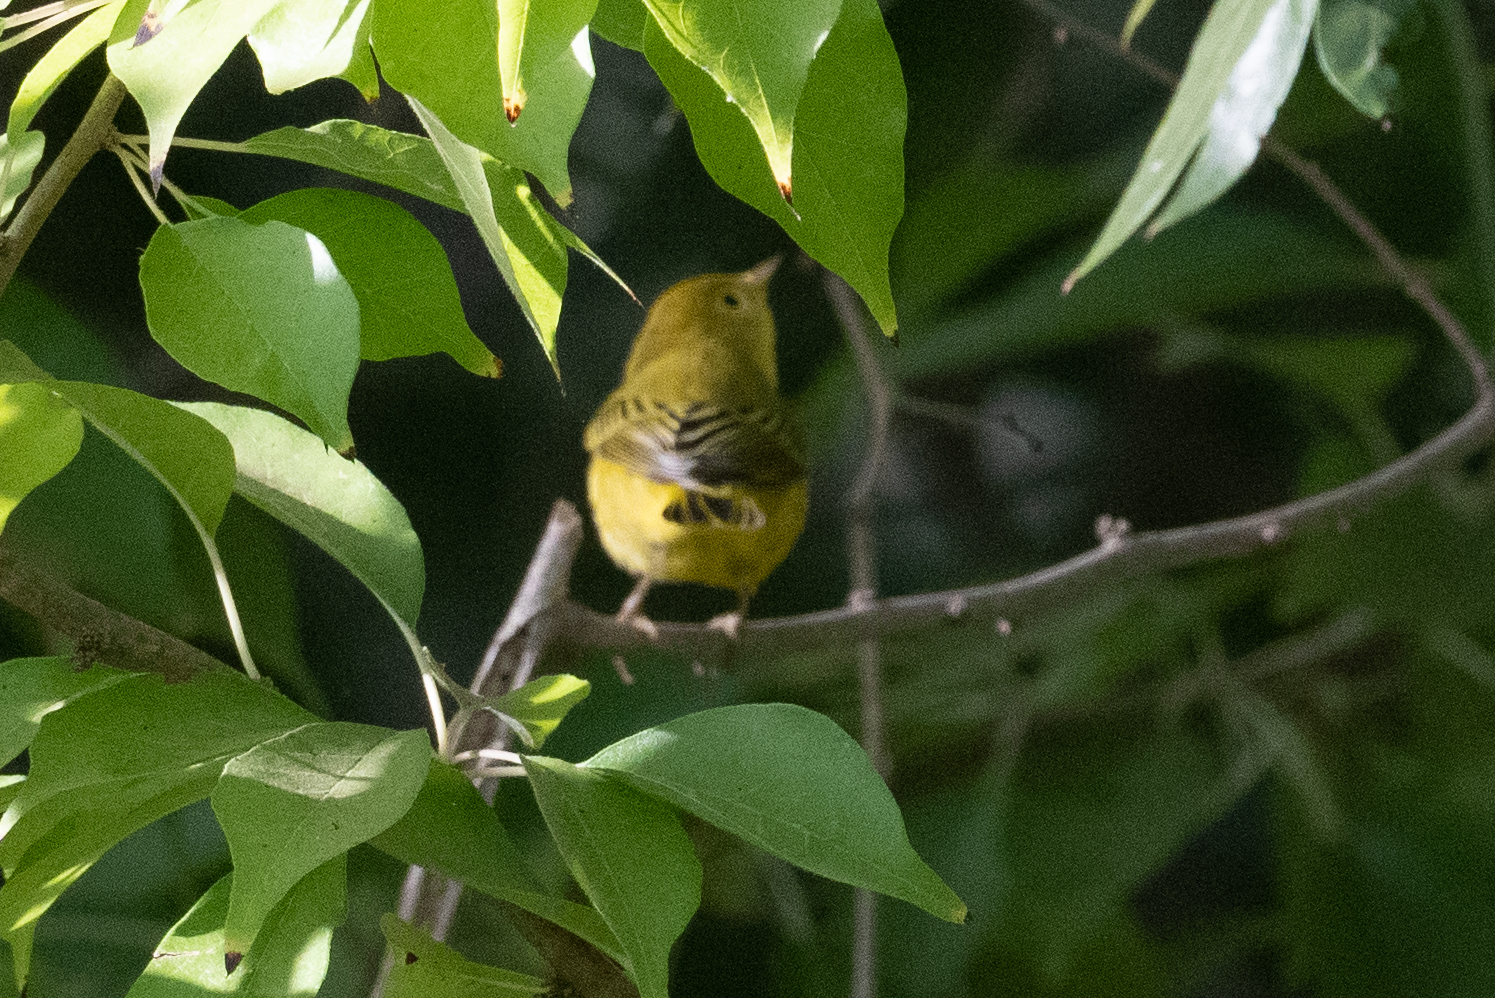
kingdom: Animalia
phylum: Chordata
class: Aves
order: Passeriformes
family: Parulidae
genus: Setophaga
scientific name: Setophaga petechia
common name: Yellow warbler
